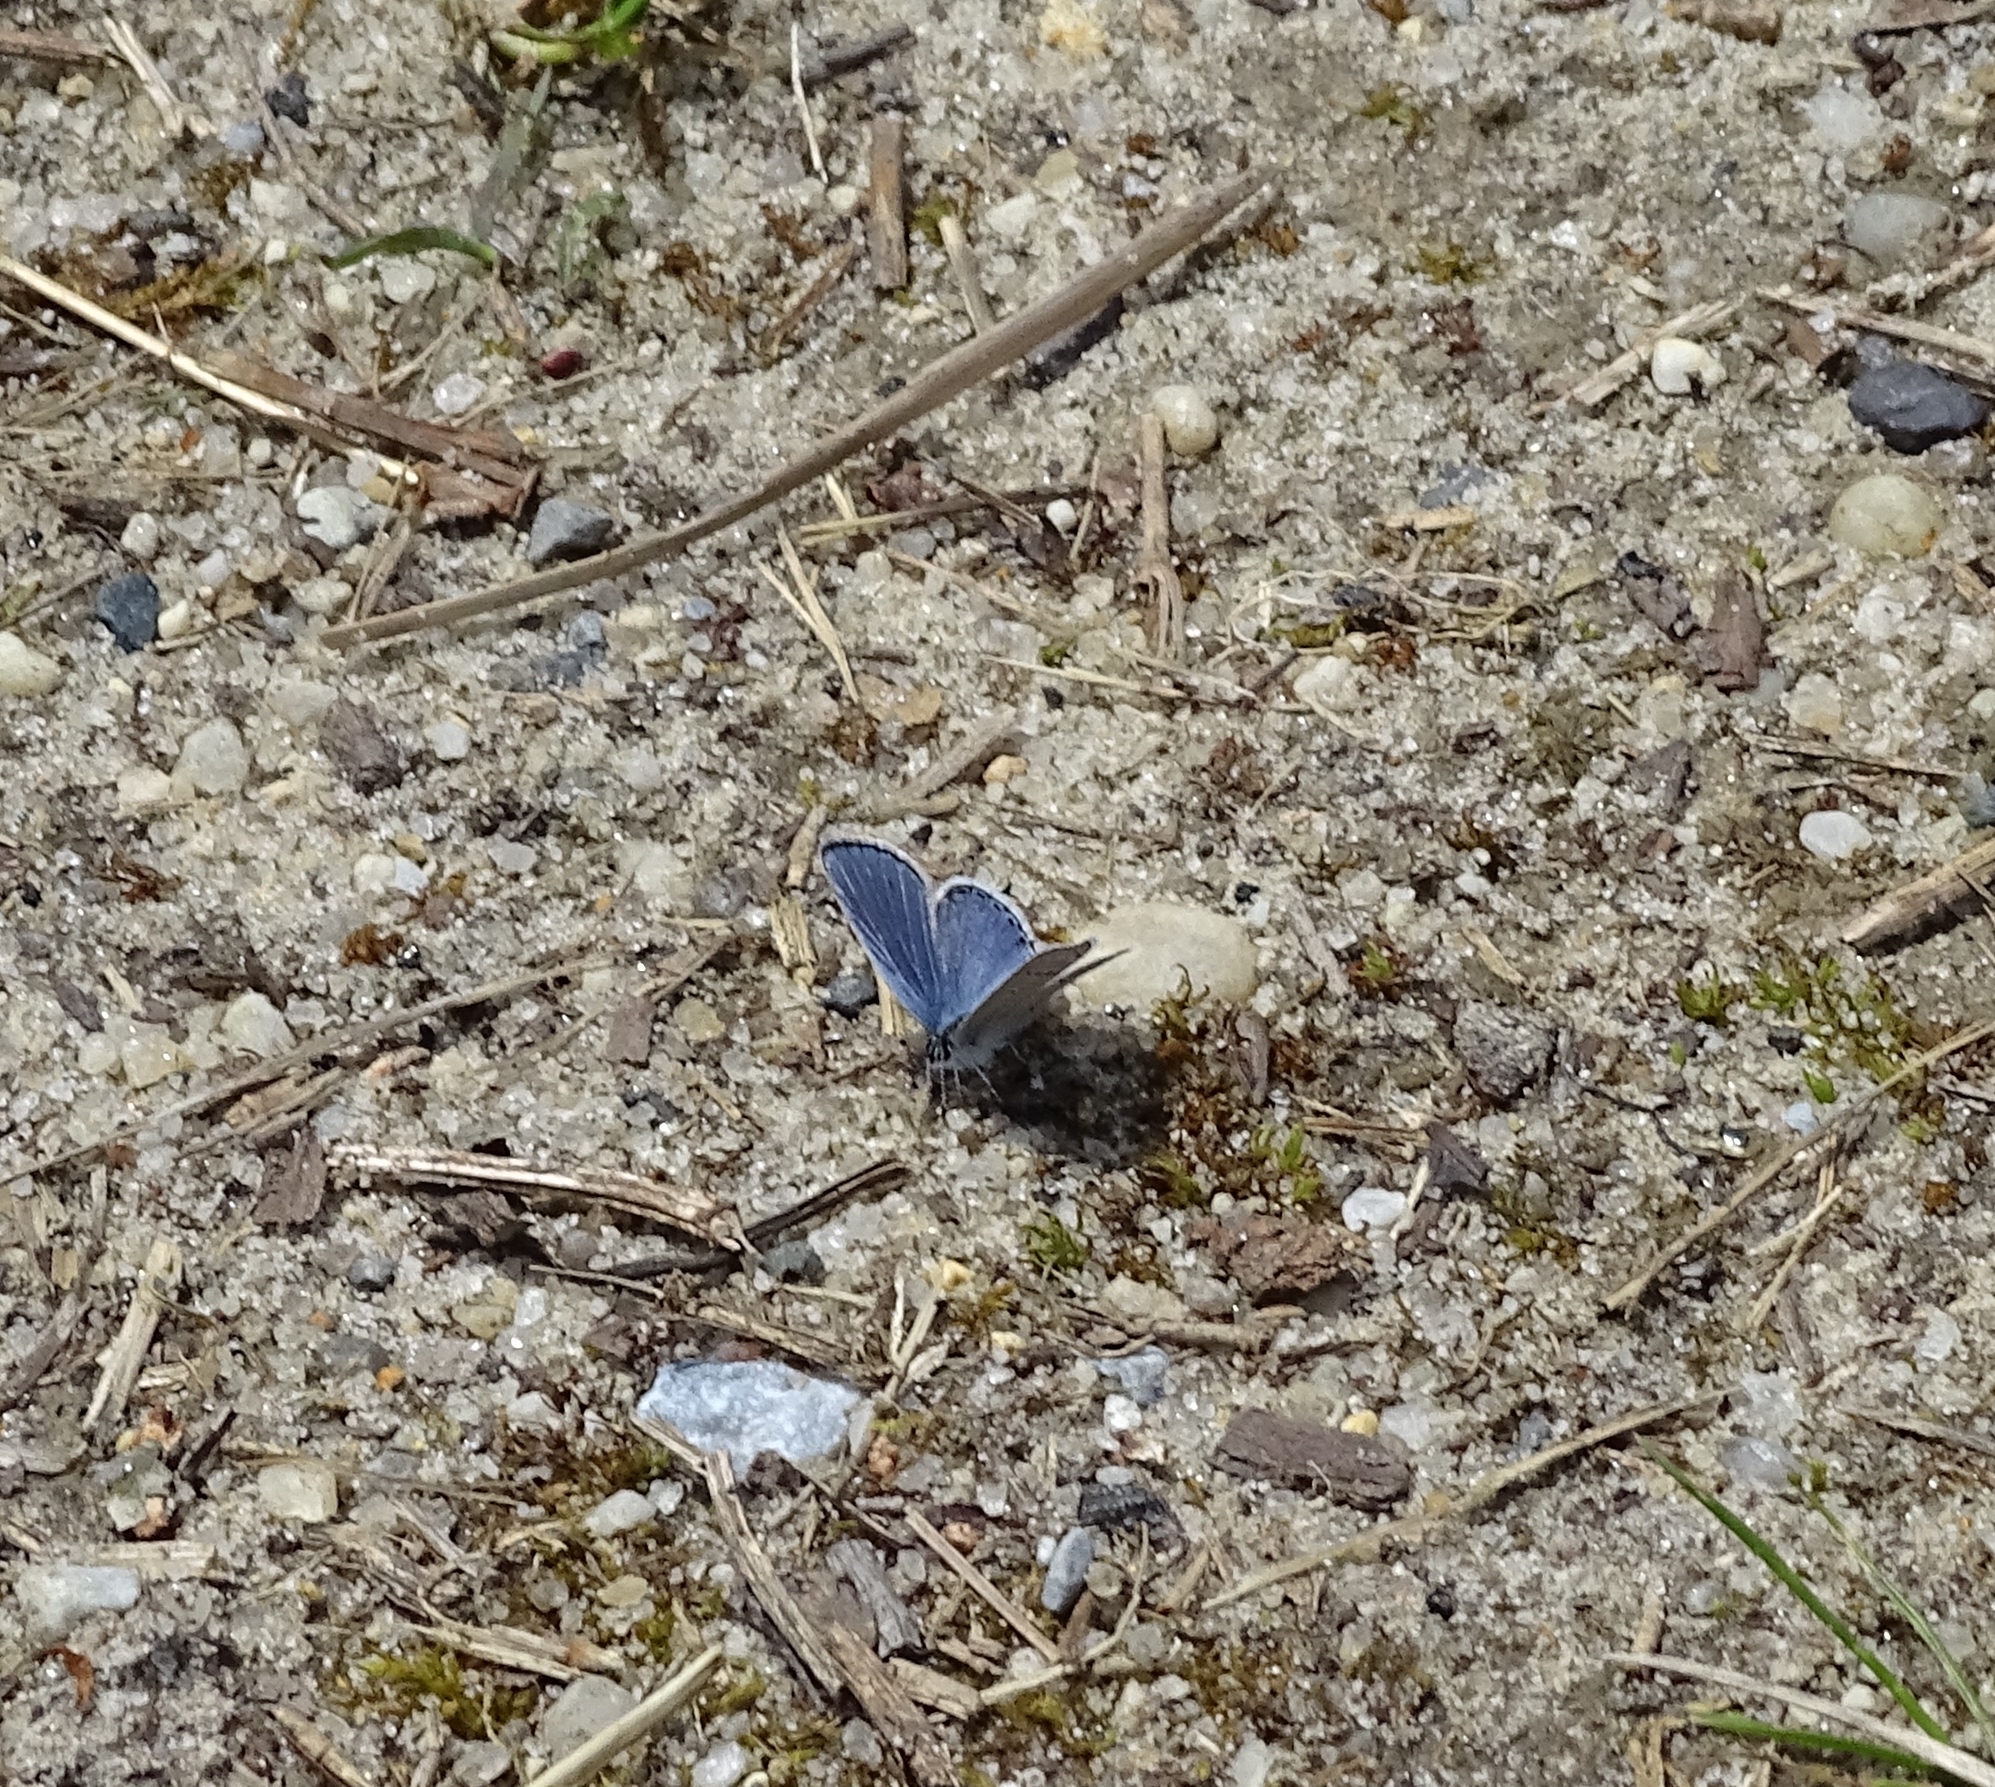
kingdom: Animalia
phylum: Arthropoda
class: Insecta
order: Lepidoptera
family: Lycaenidae
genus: Elkalyce
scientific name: Elkalyce comyntas
